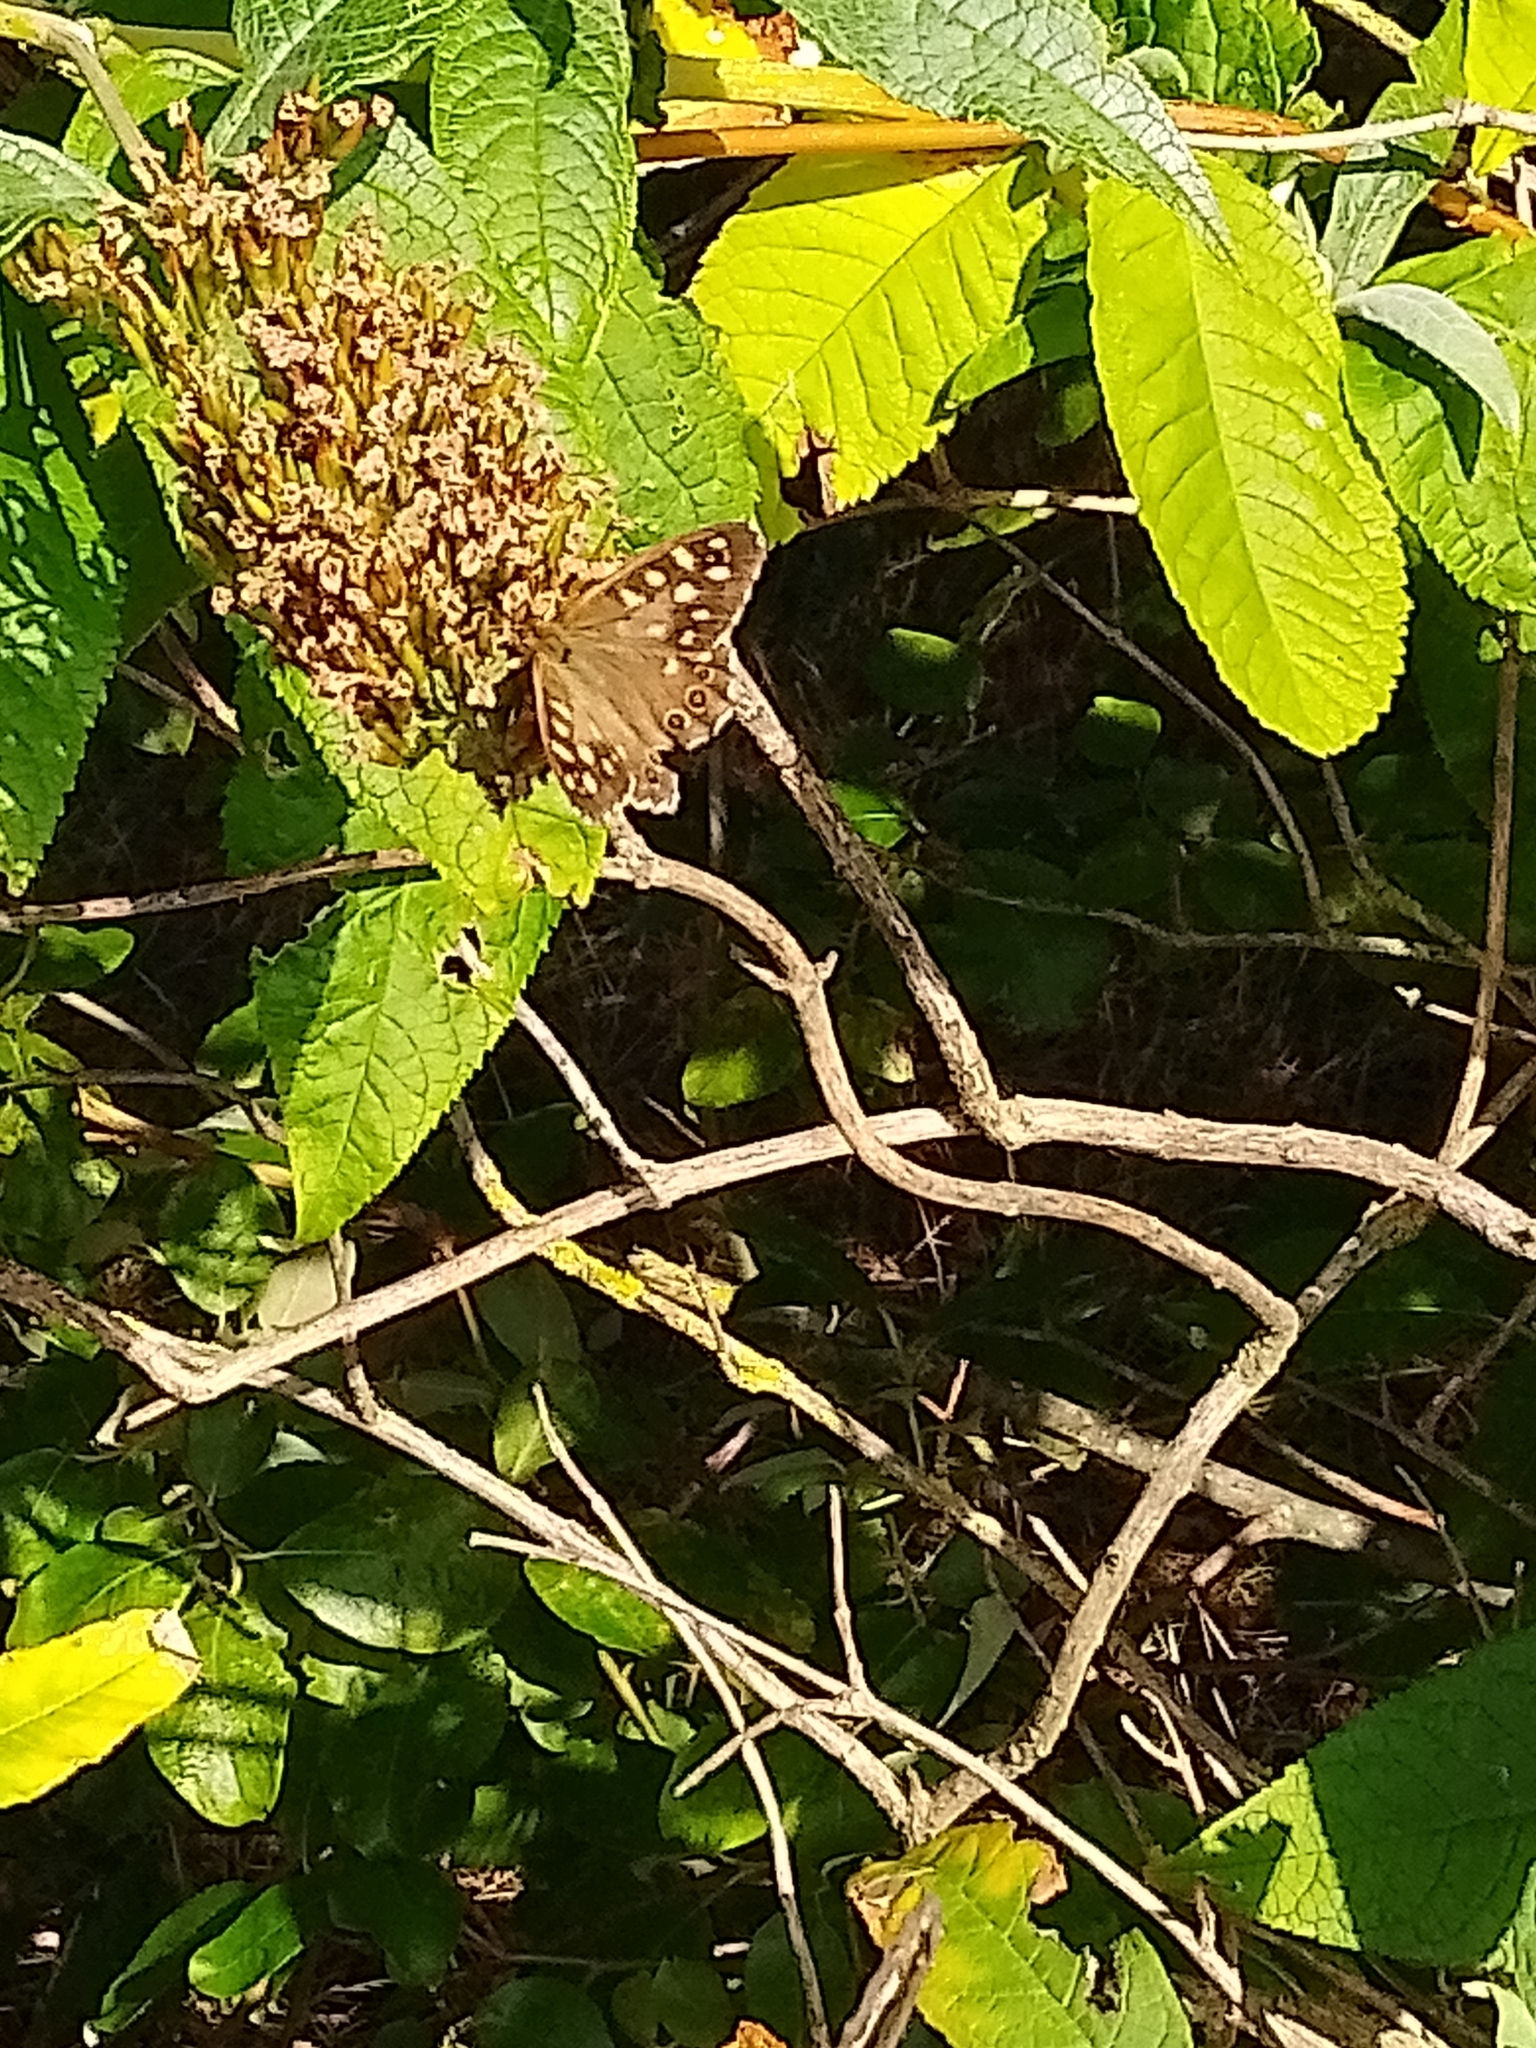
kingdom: Animalia
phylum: Arthropoda
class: Insecta
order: Lepidoptera
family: Nymphalidae
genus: Pararge
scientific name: Pararge aegeria
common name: Speckled wood
